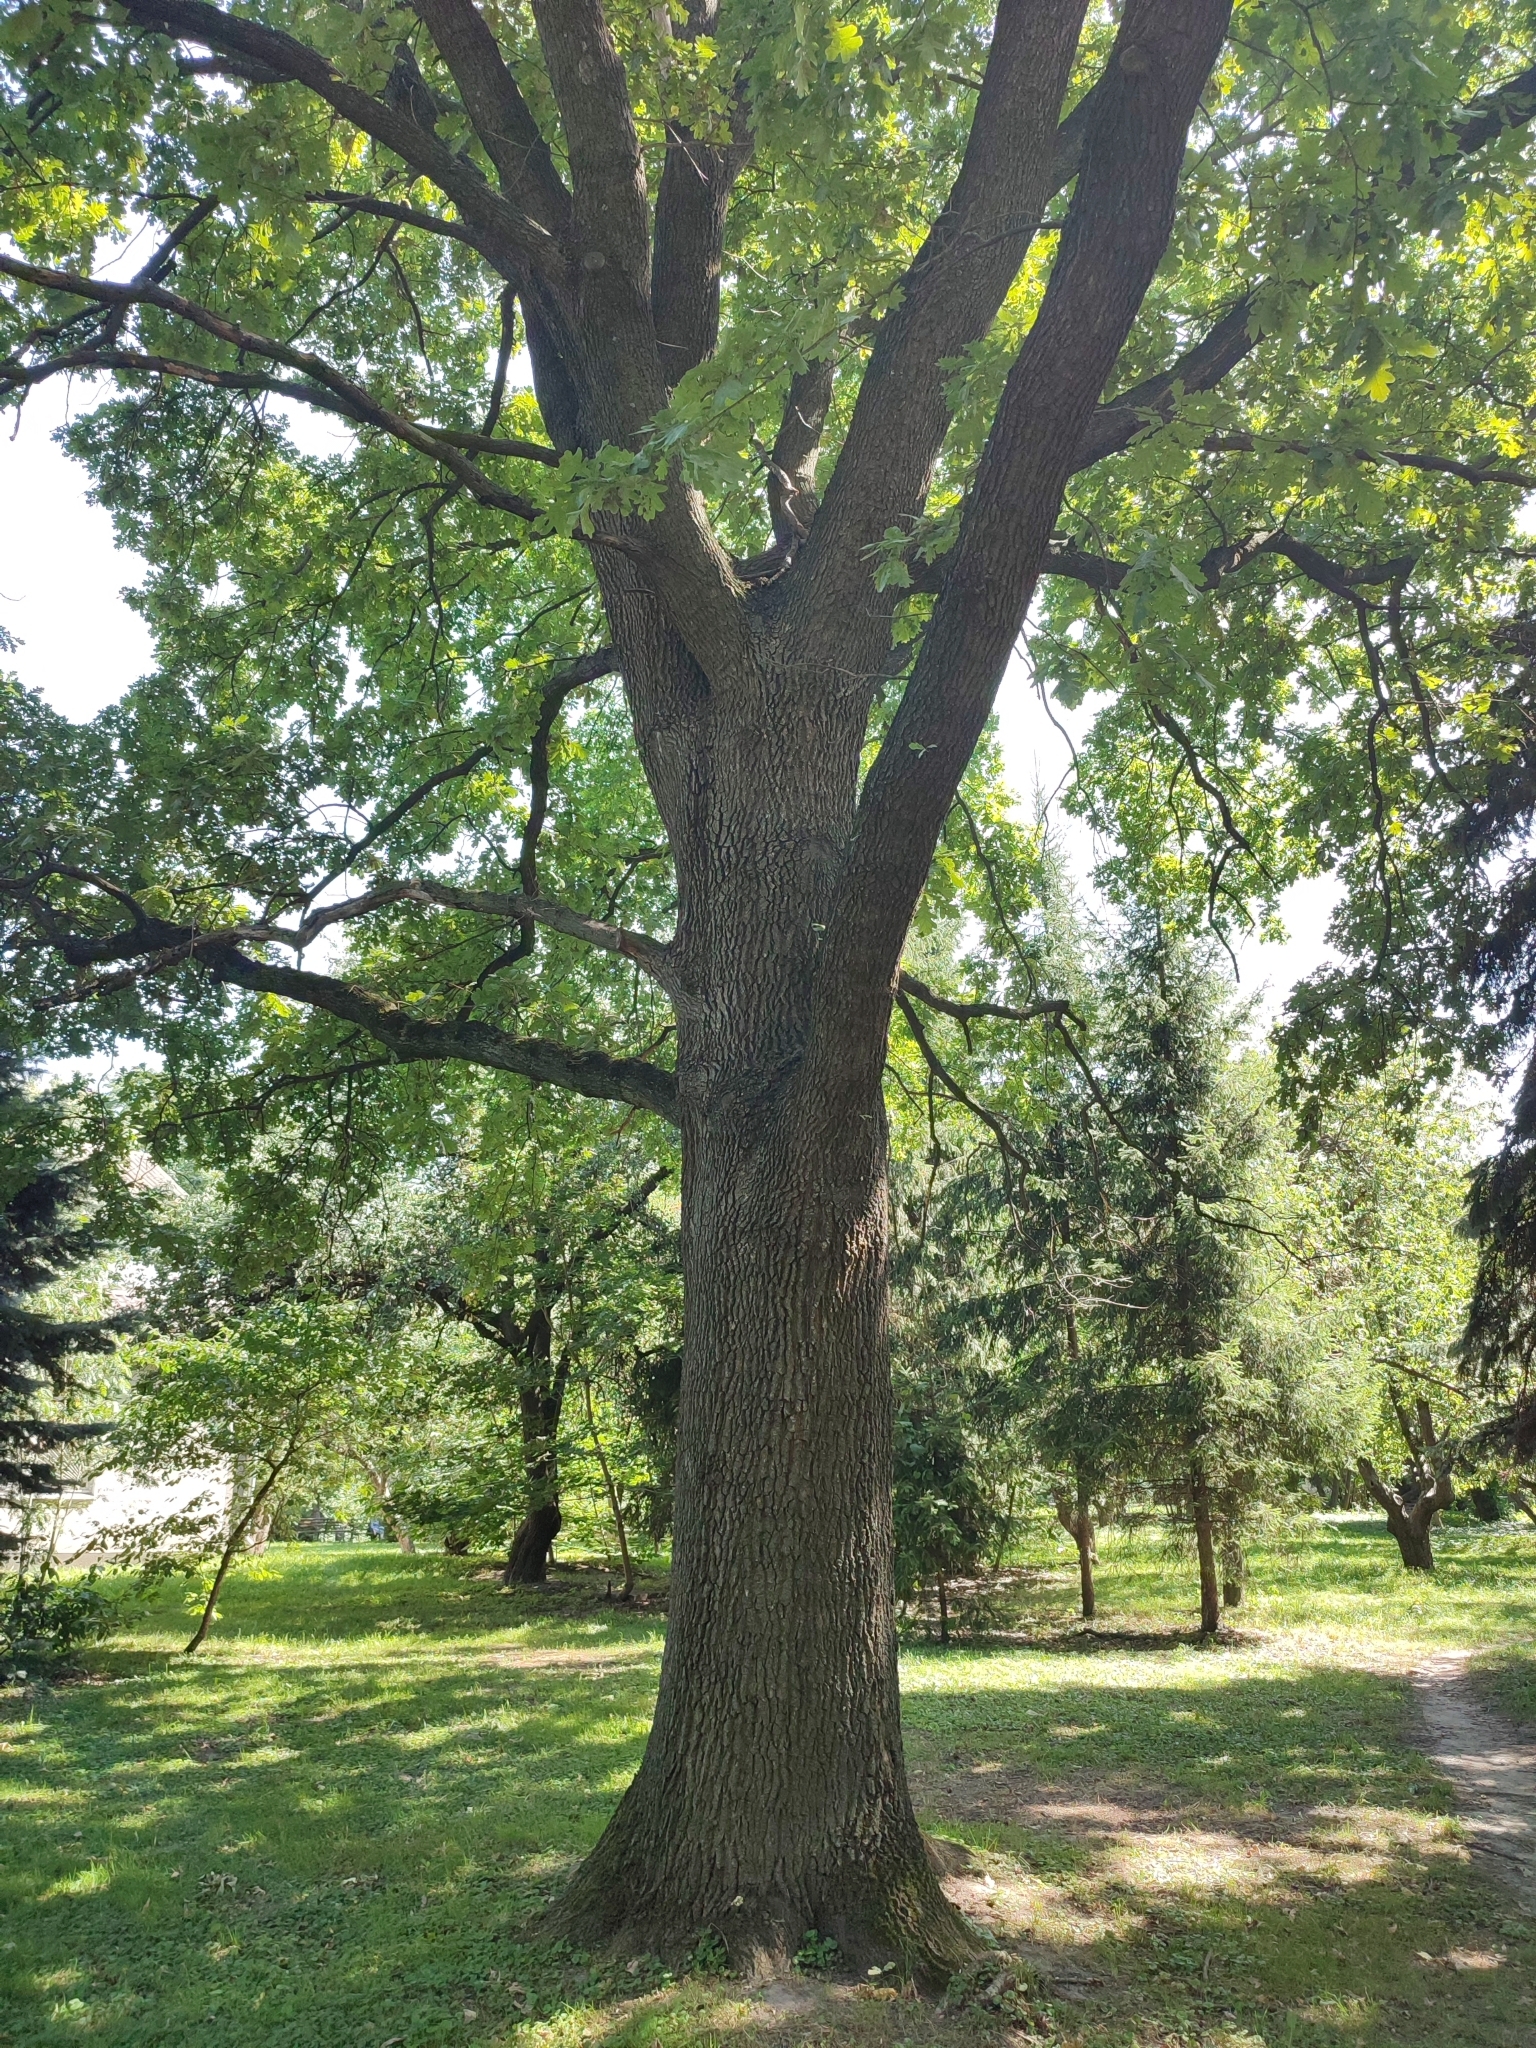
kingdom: Plantae
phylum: Tracheophyta
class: Magnoliopsida
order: Fagales
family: Fagaceae
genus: Quercus
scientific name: Quercus robur
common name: Pedunculate oak
